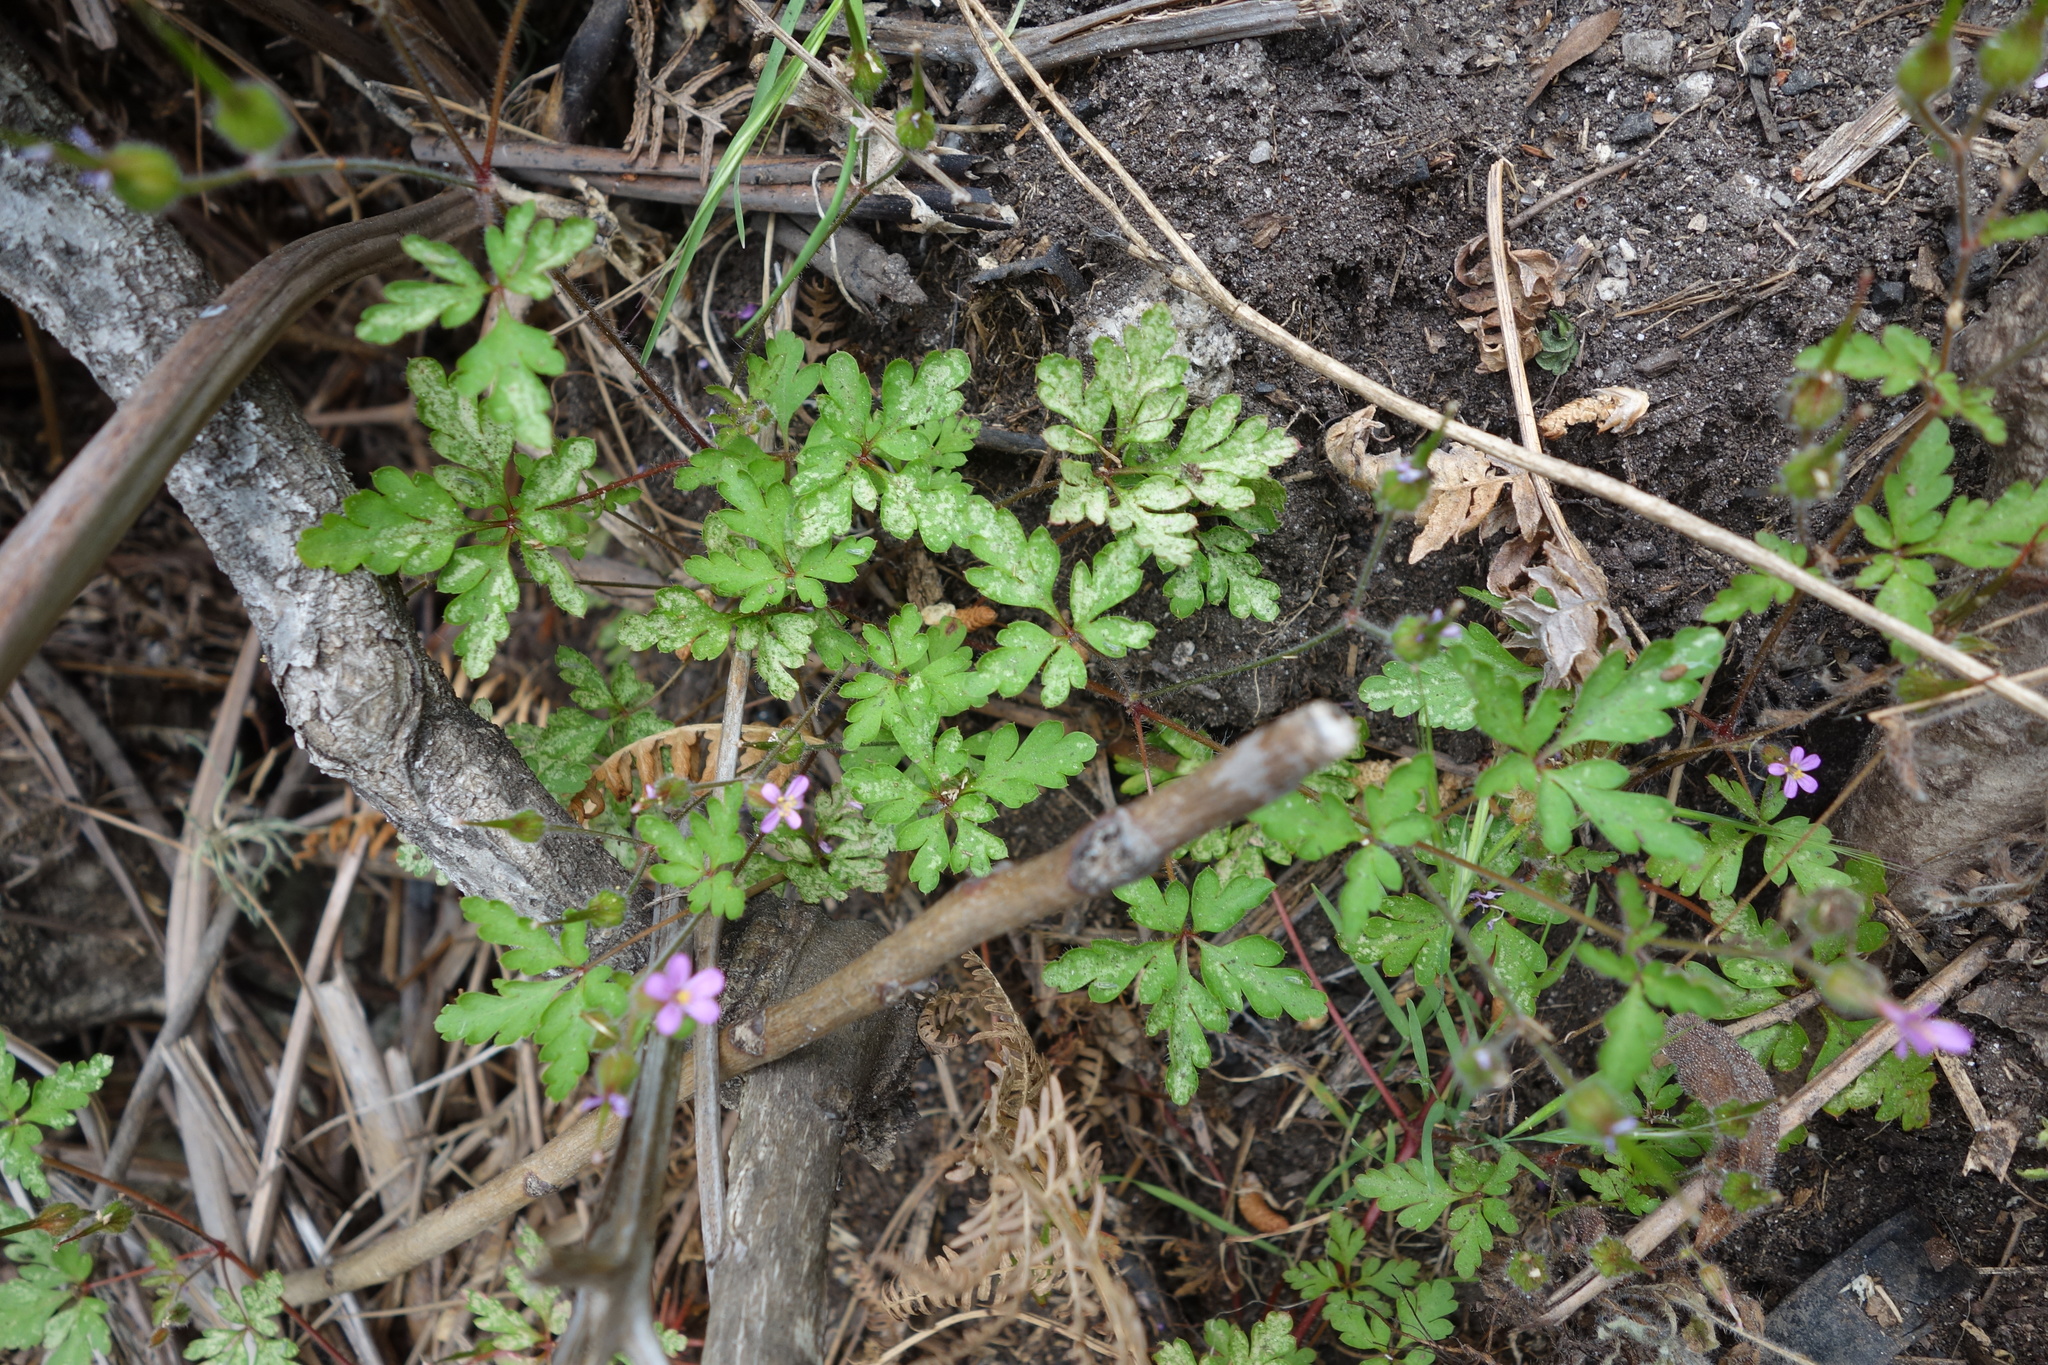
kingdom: Plantae
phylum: Tracheophyta
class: Magnoliopsida
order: Geraniales
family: Geraniaceae
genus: Geranium
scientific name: Geranium purpureum
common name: Little-robin
